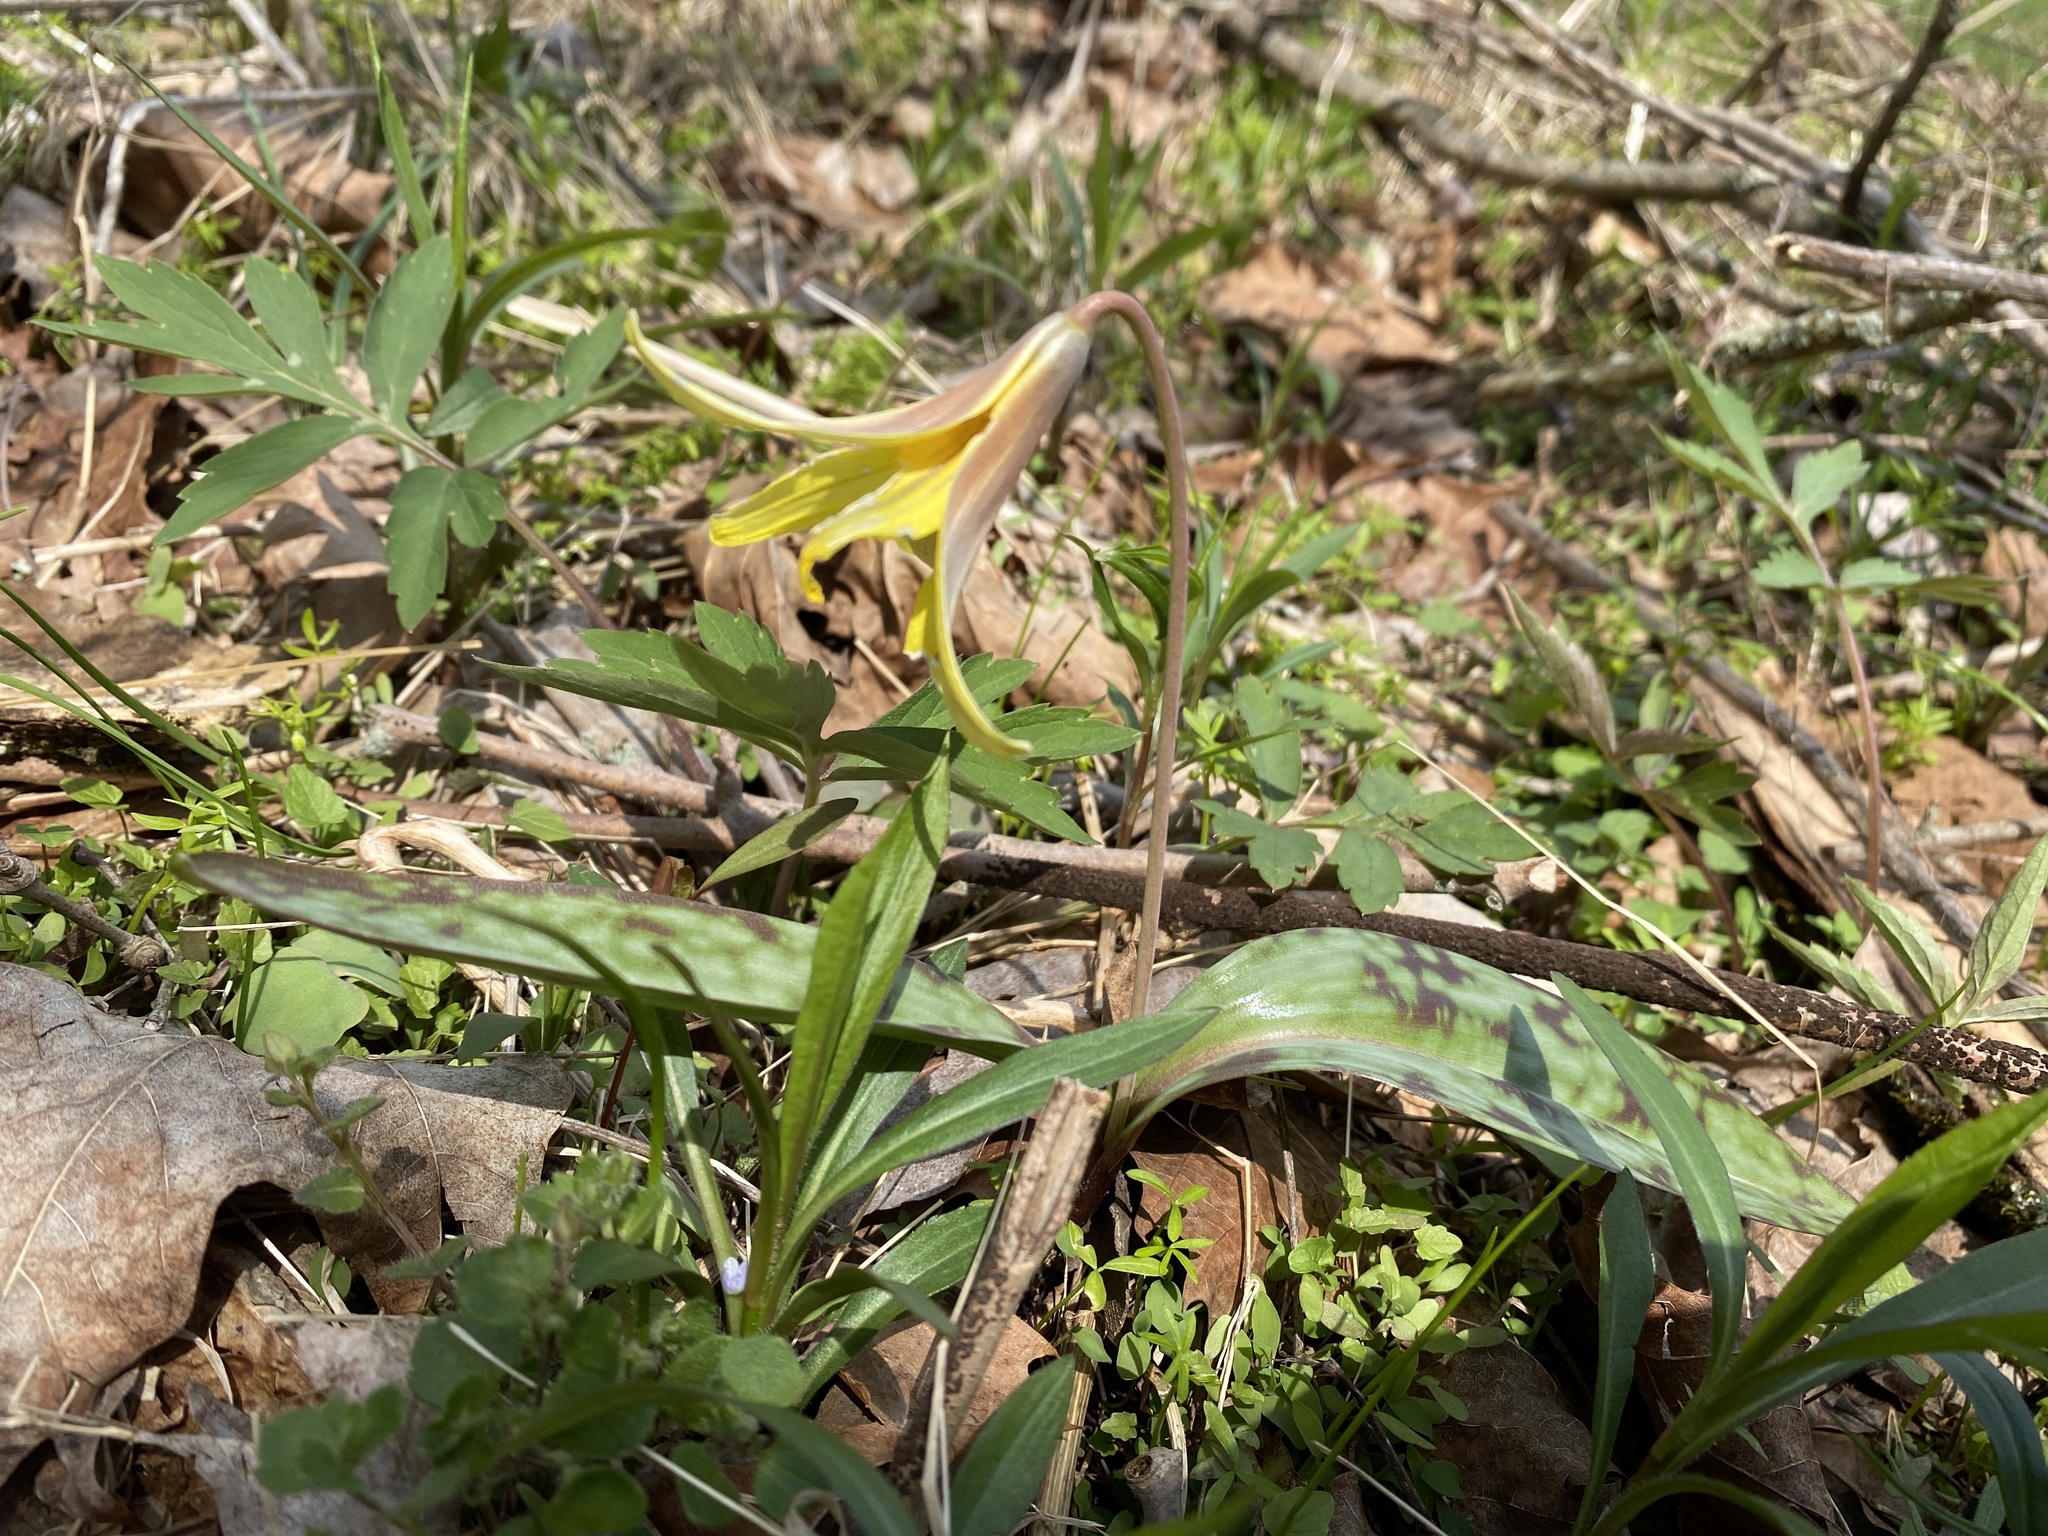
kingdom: Plantae
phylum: Tracheophyta
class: Liliopsida
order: Liliales
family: Liliaceae
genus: Erythronium
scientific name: Erythronium americanum
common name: Yellow adder's-tongue
